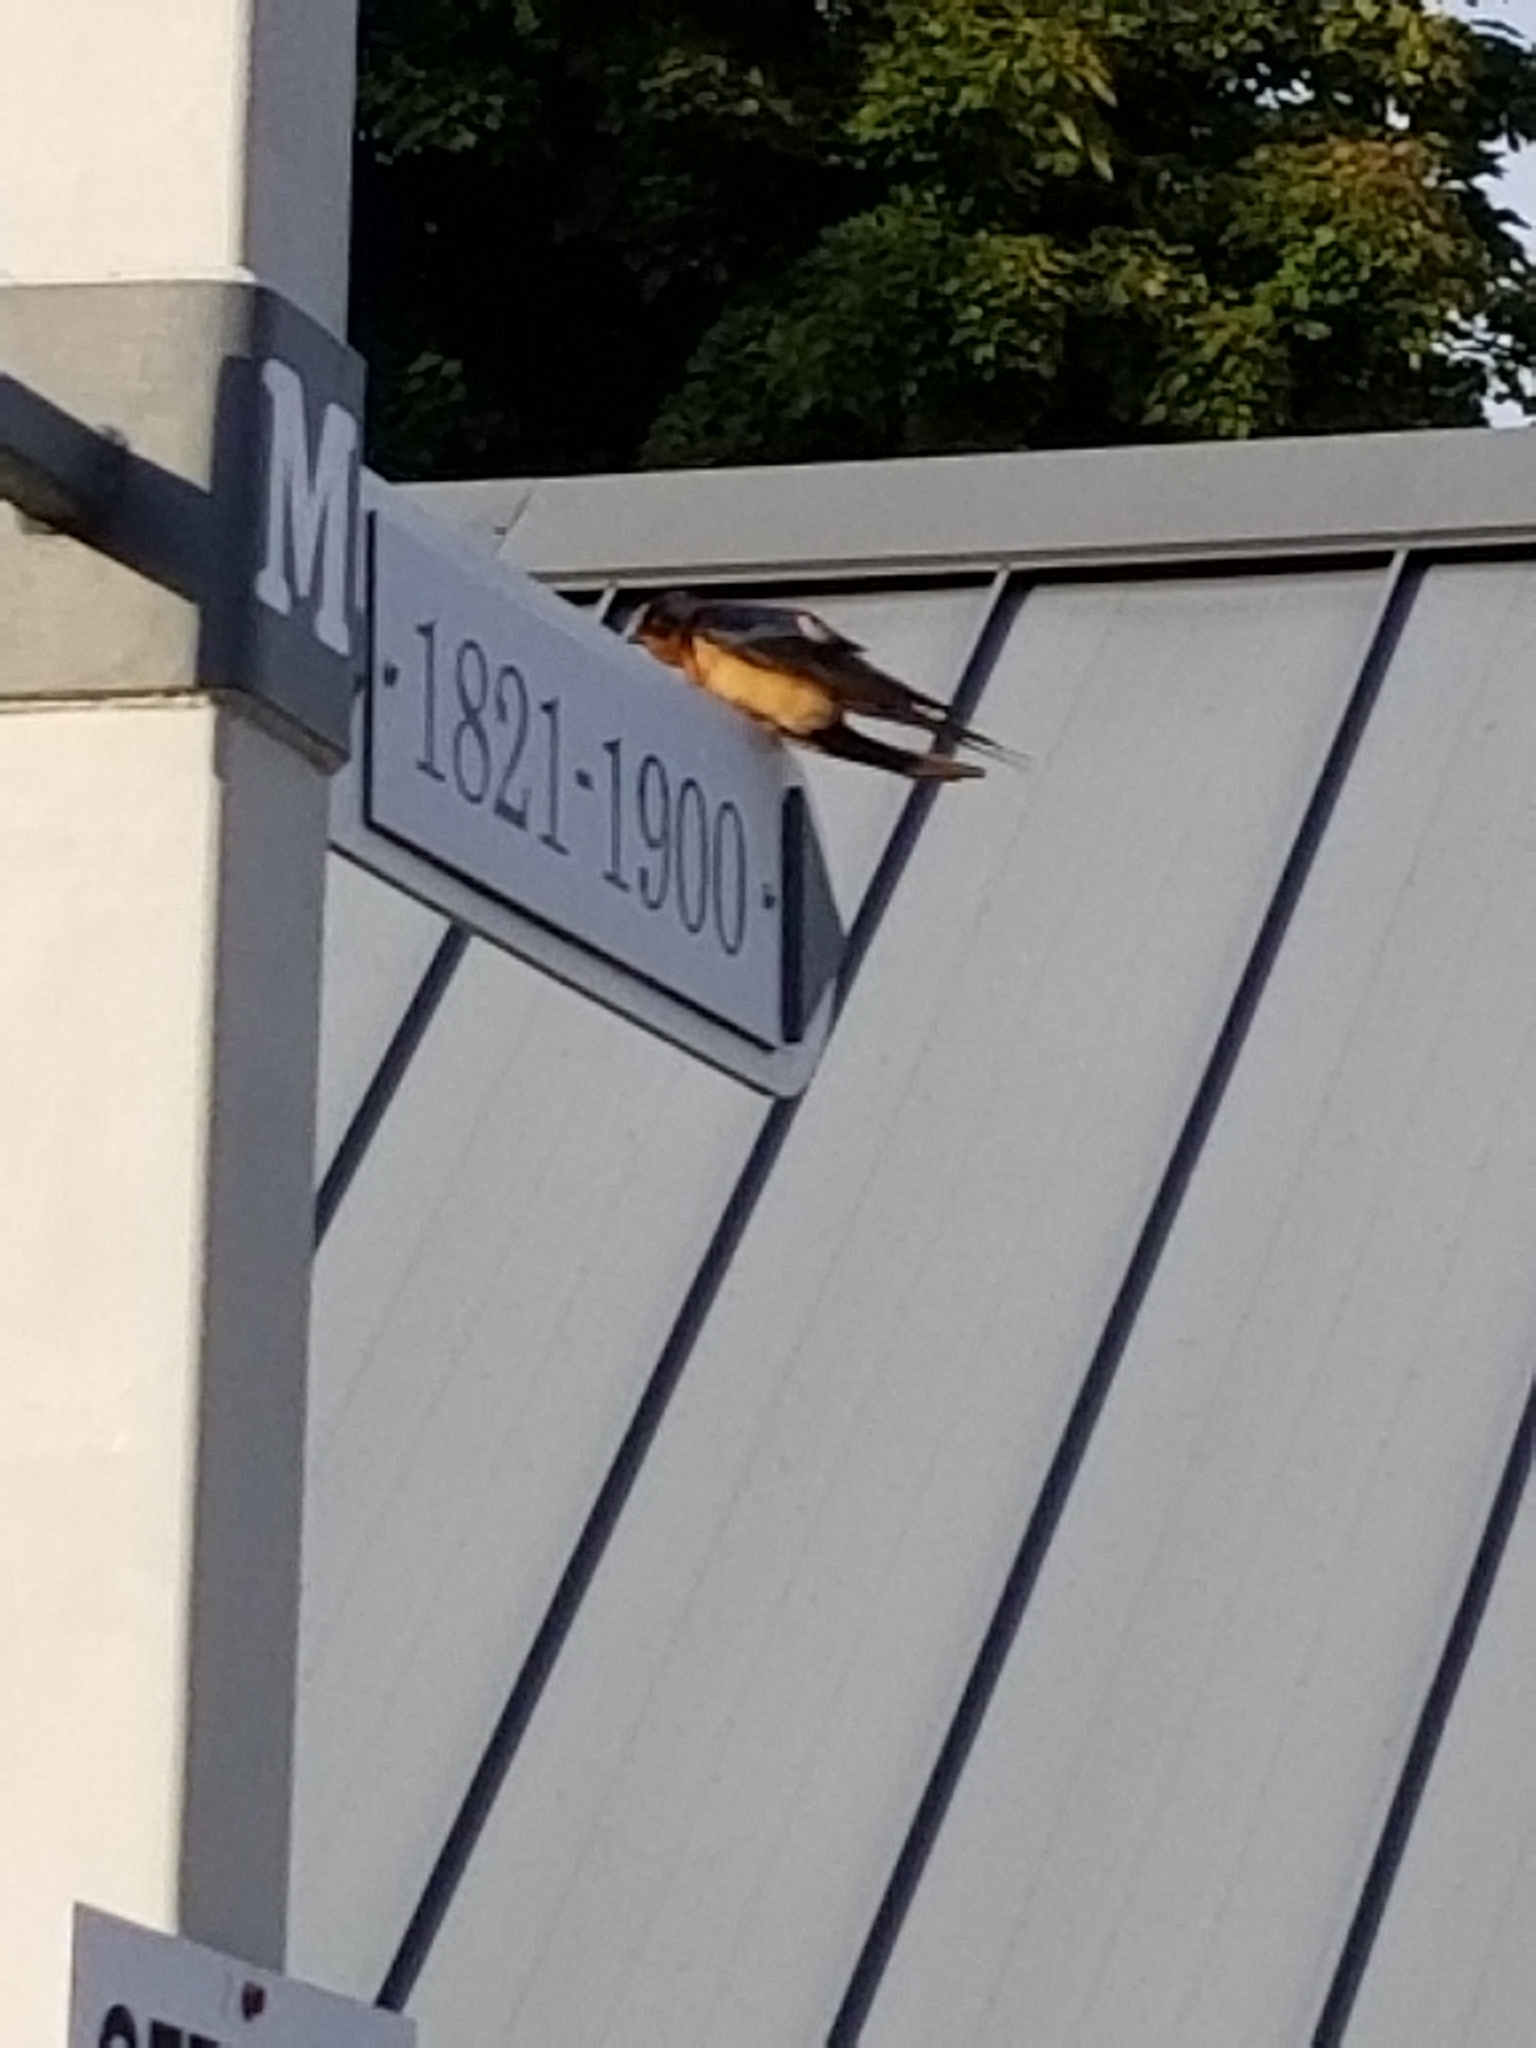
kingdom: Animalia
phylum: Chordata
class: Aves
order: Passeriformes
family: Hirundinidae
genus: Hirundo
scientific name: Hirundo rustica
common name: Barn swallow
